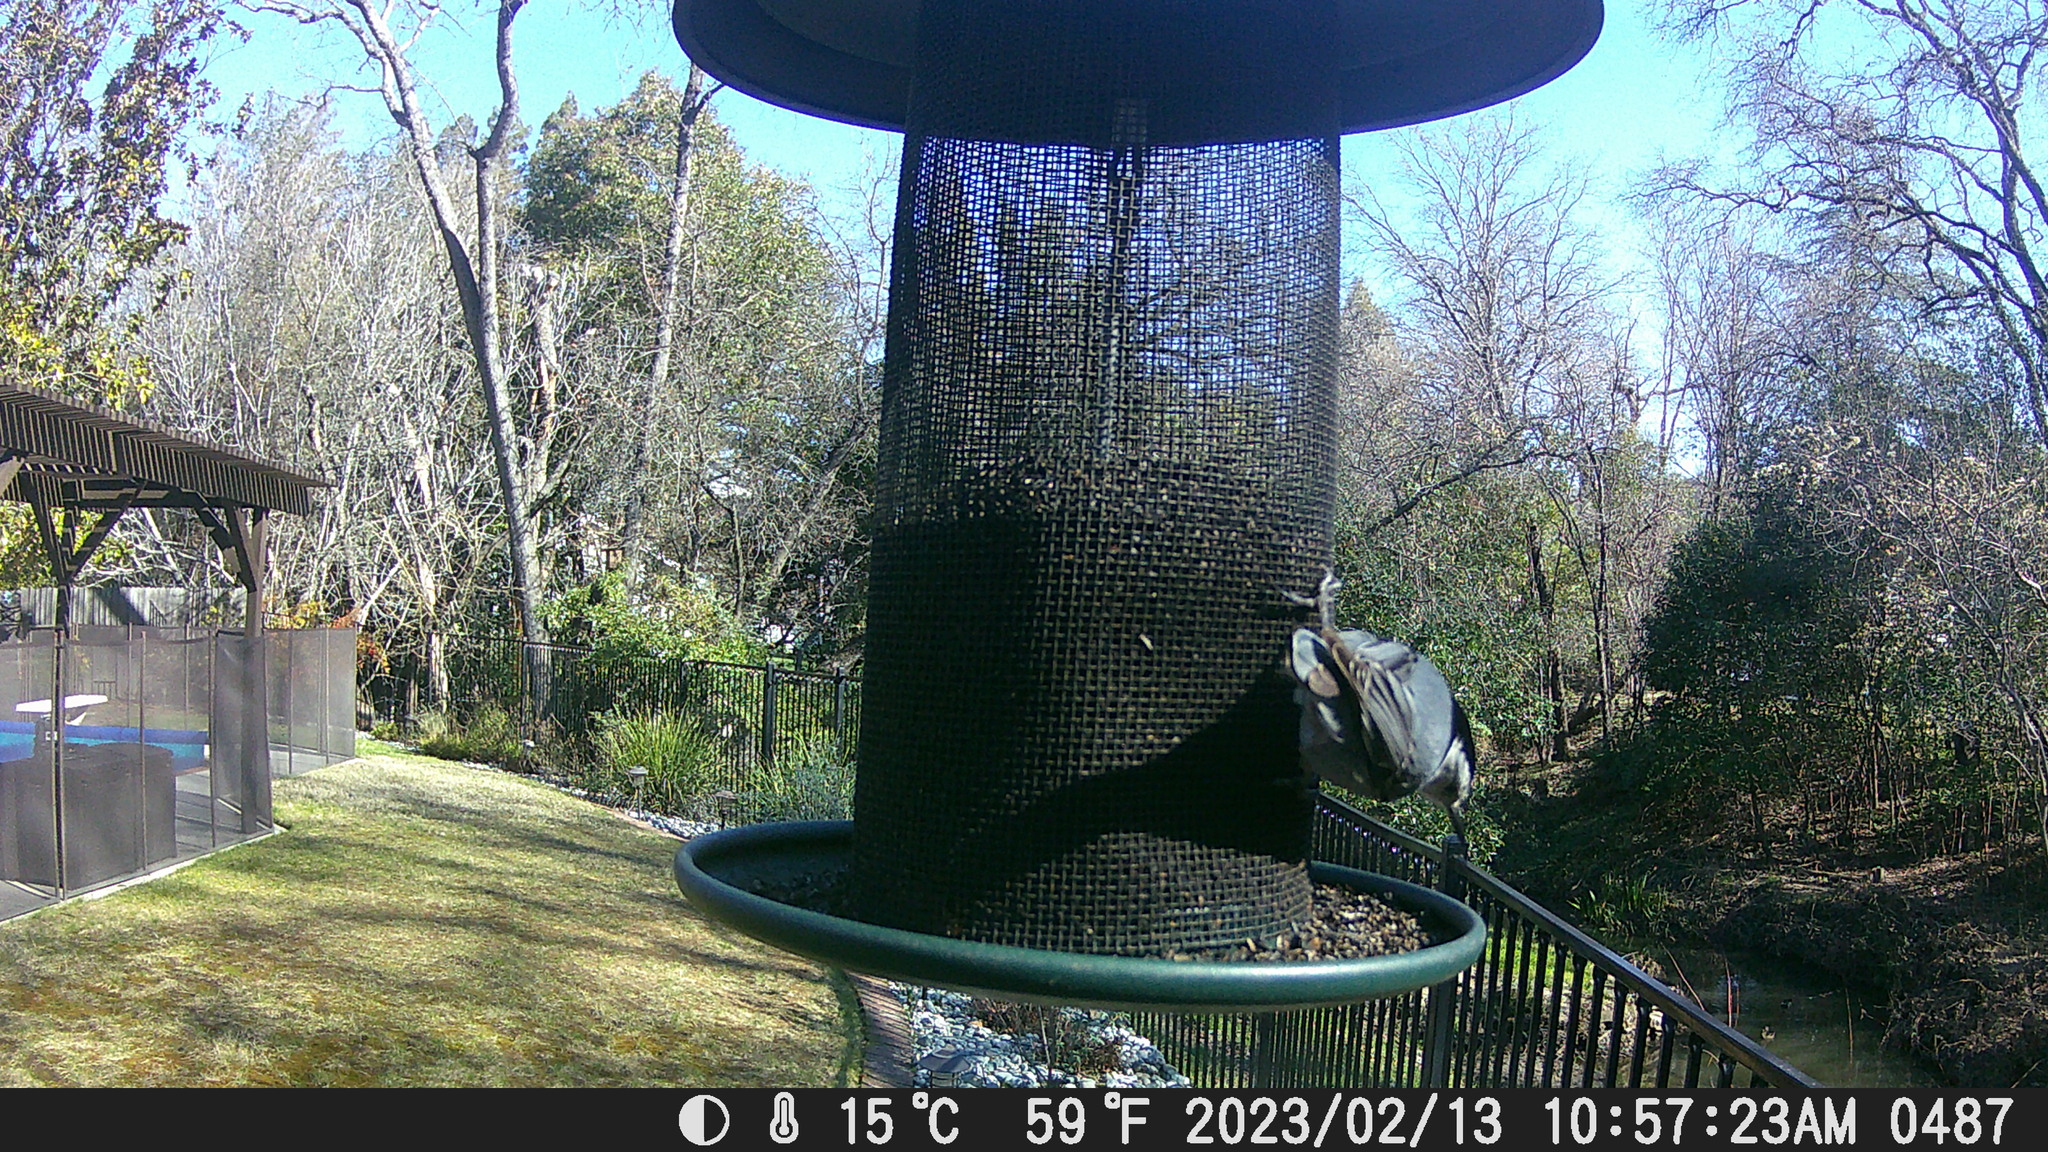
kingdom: Animalia
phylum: Chordata
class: Aves
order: Passeriformes
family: Sittidae
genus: Sitta
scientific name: Sitta carolinensis
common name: White-breasted nuthatch
